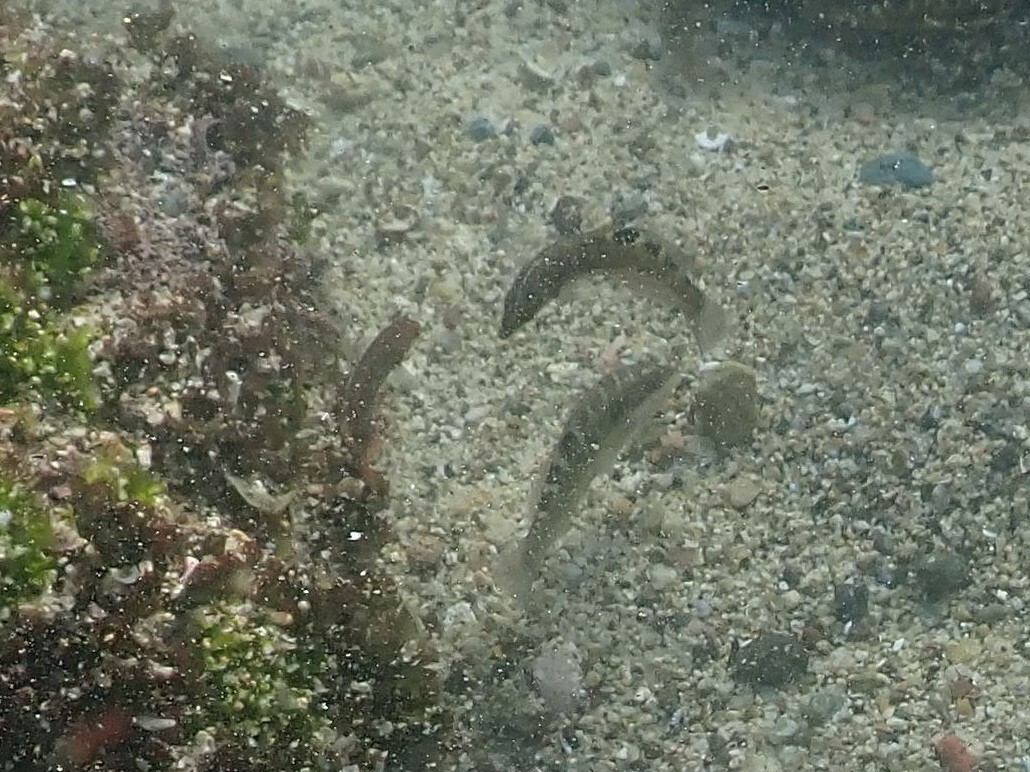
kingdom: Animalia
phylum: Chordata
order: Perciformes
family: Labridae
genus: Halichoeres
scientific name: Halichoeres notospilus
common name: Banded wrasse
